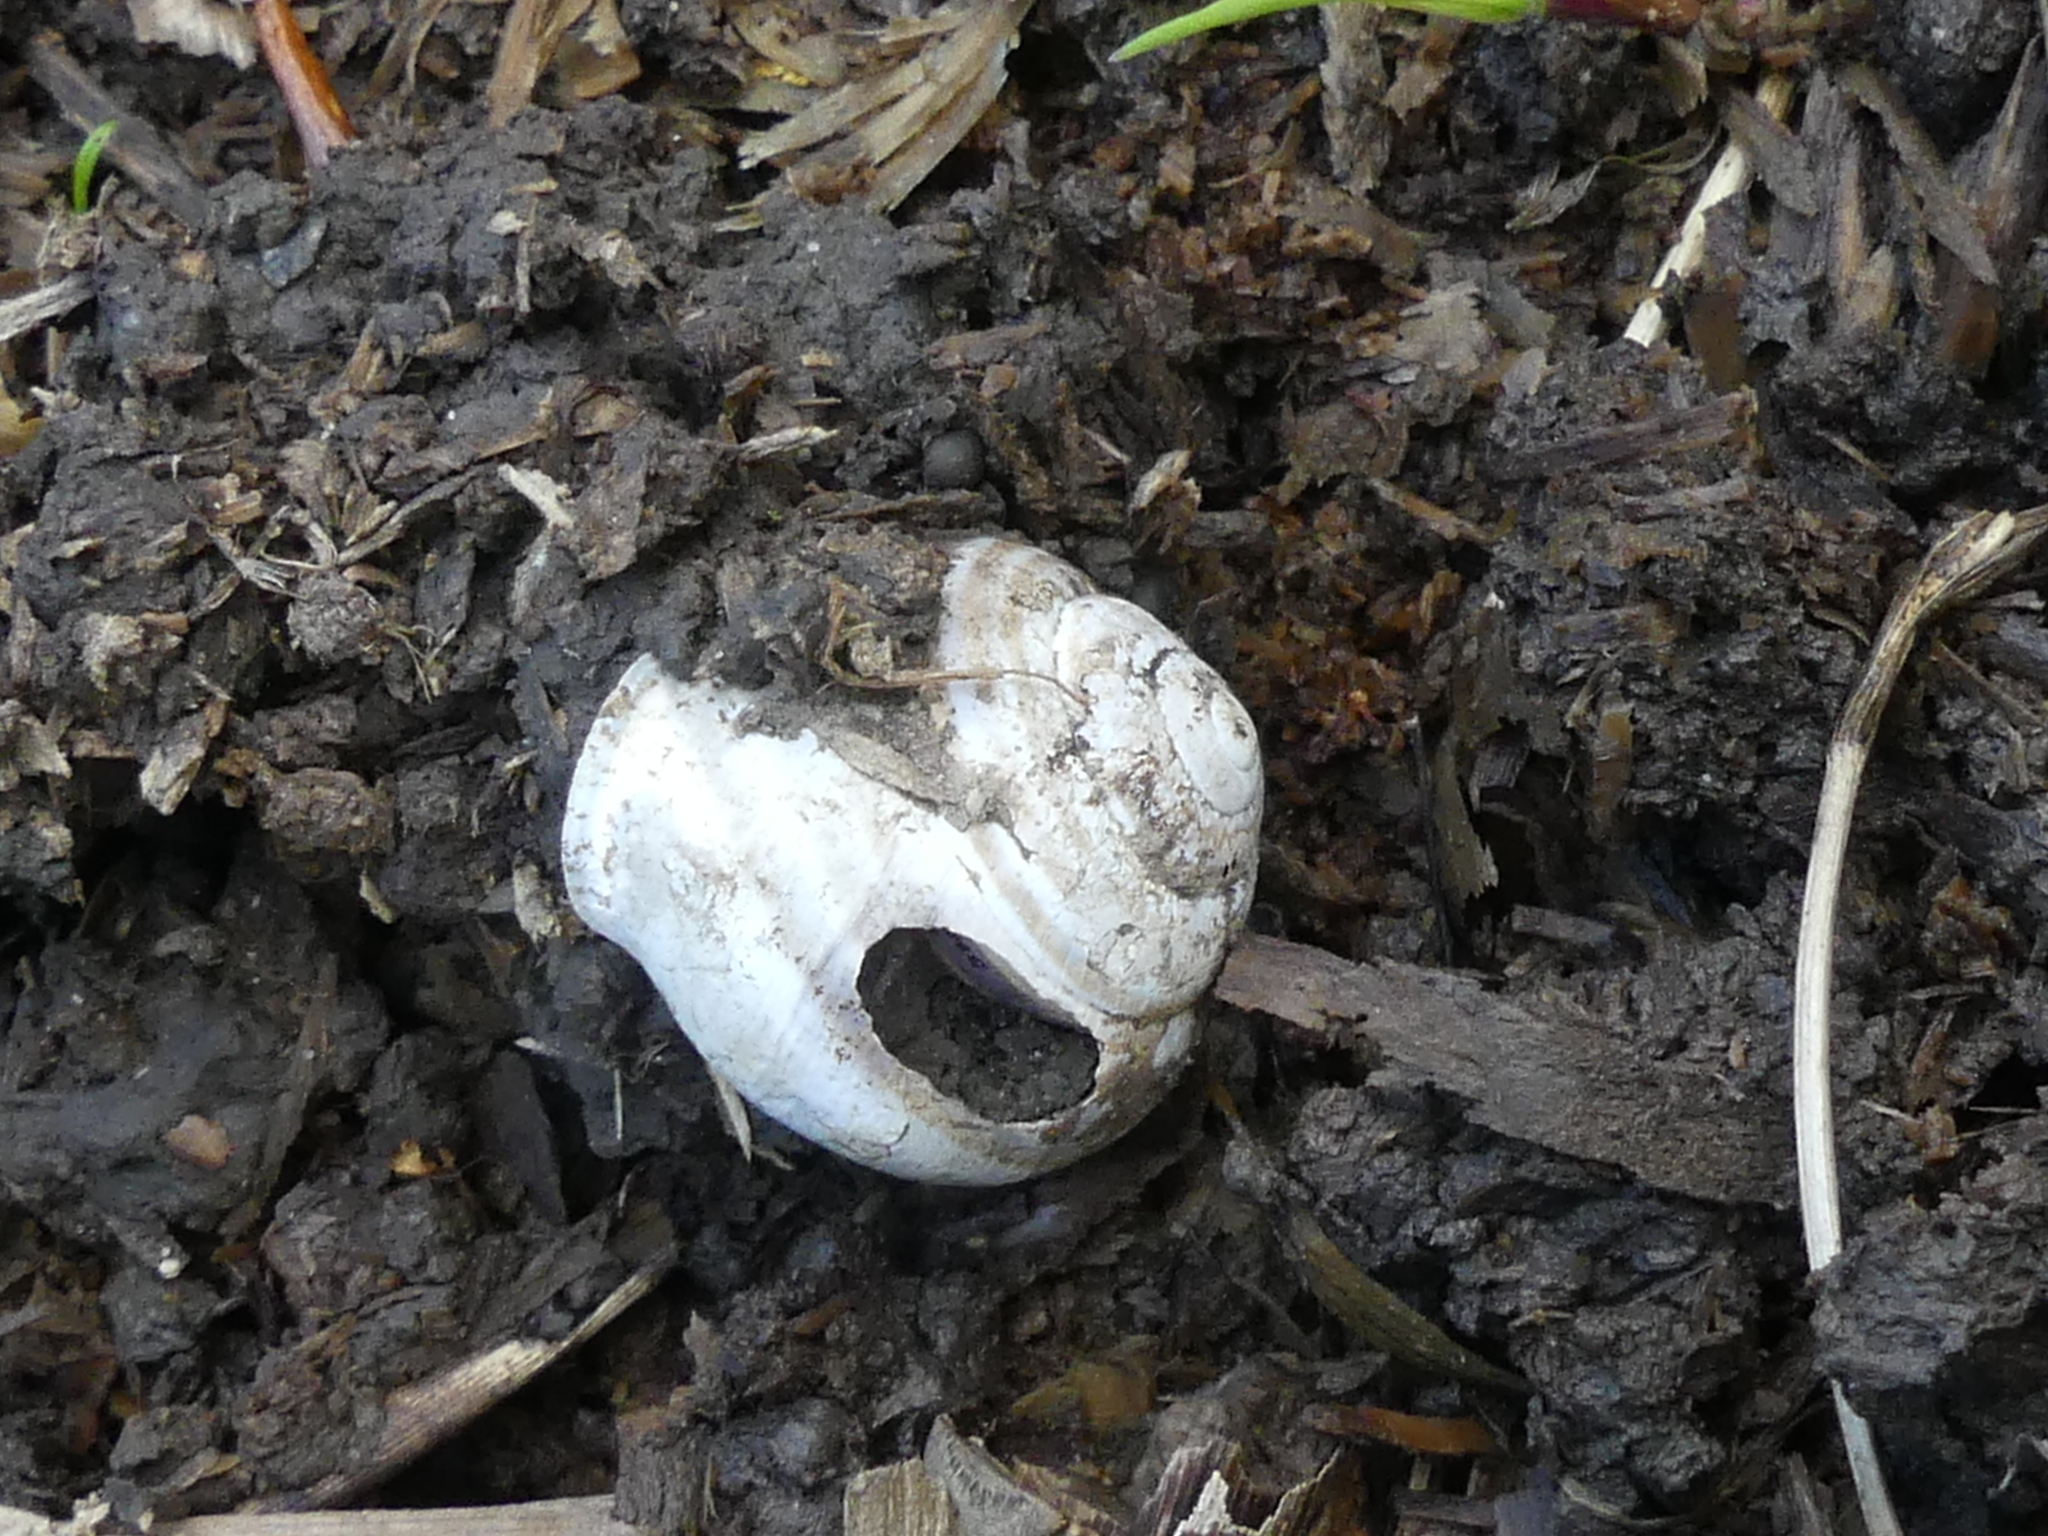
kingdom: Animalia
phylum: Mollusca
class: Gastropoda
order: Stylommatophora
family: Helicidae
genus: Cepaea
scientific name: Cepaea nemoralis
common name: Grovesnail
